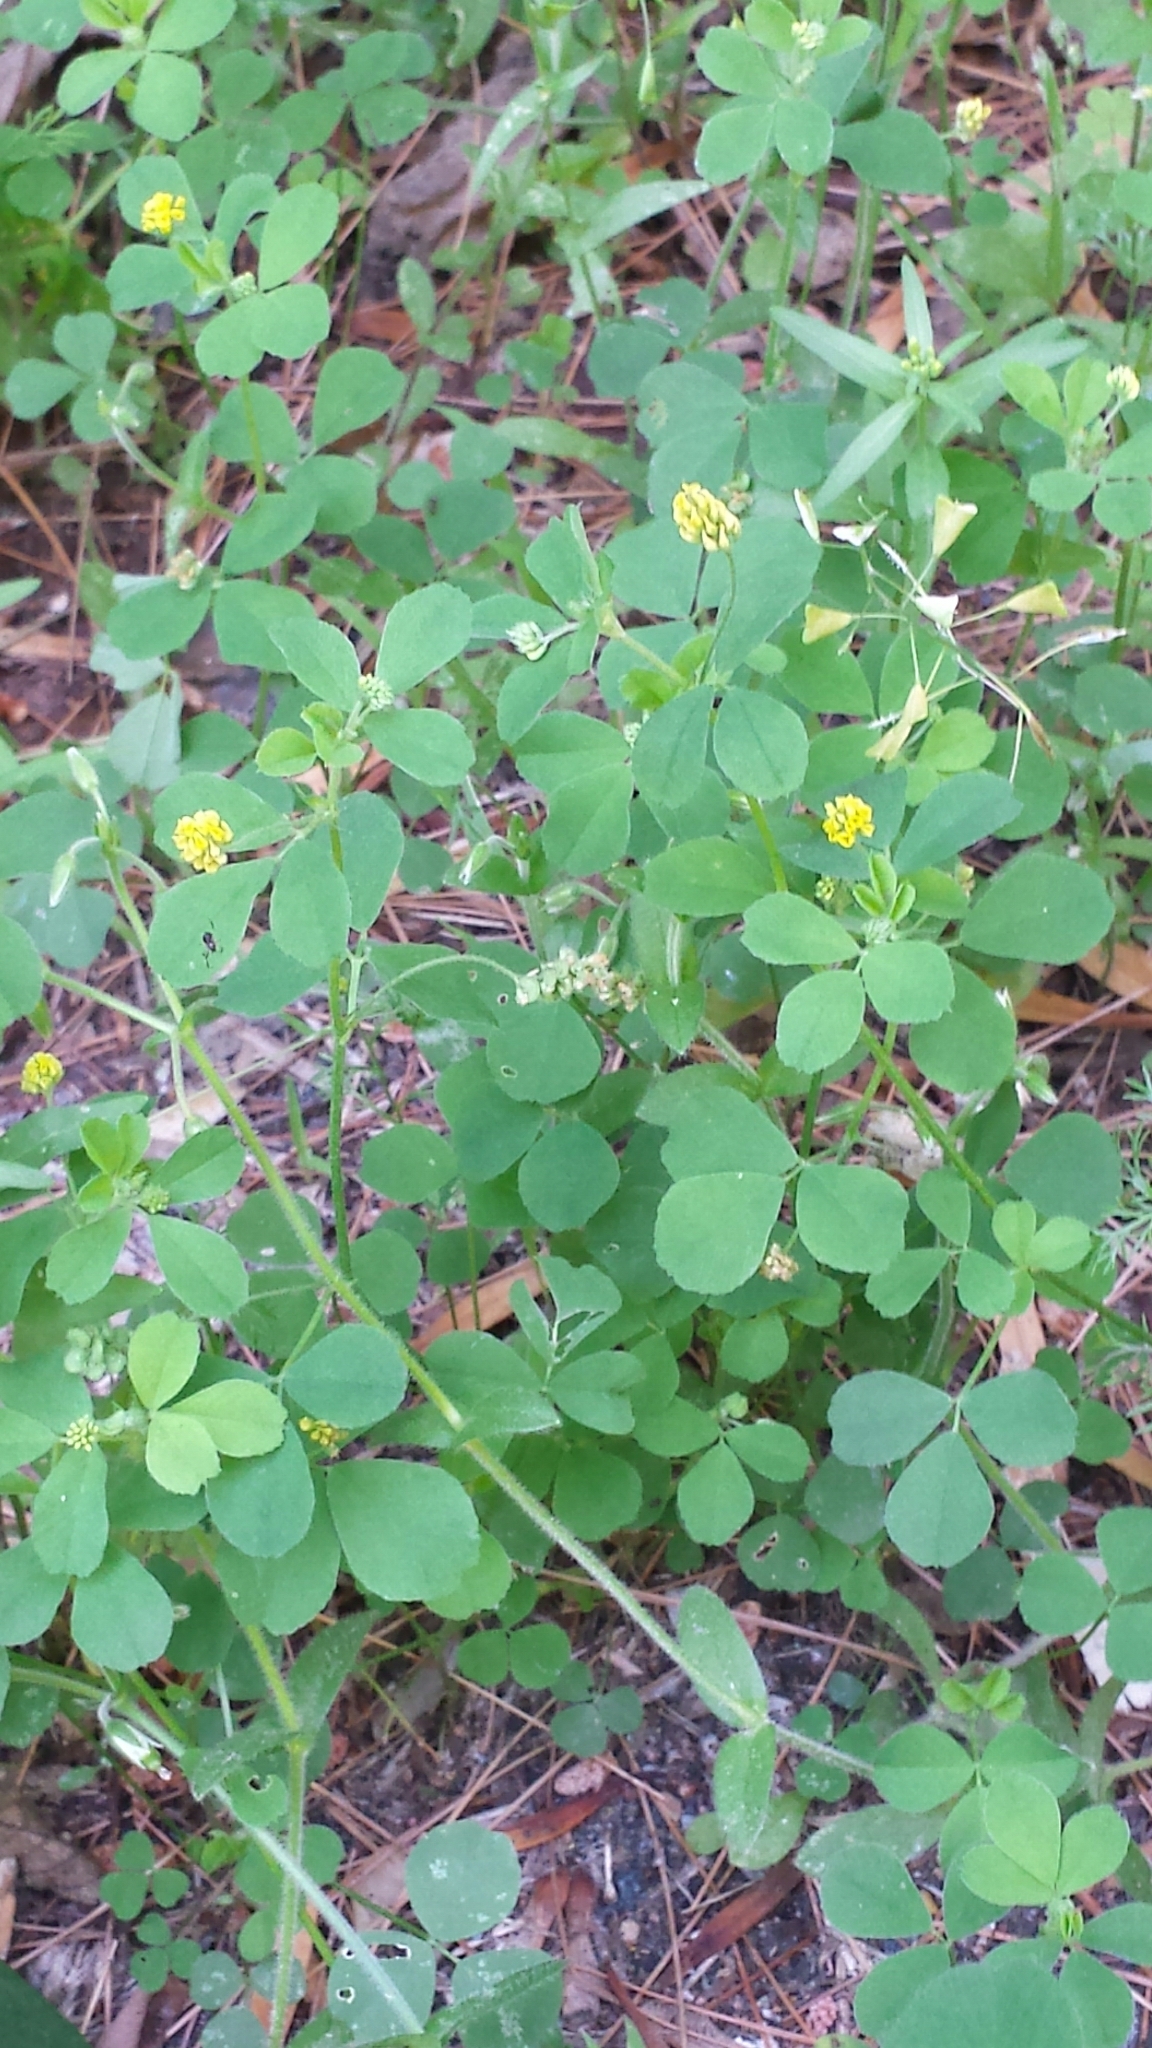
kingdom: Plantae
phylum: Tracheophyta
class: Magnoliopsida
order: Fabales
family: Fabaceae
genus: Medicago
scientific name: Medicago lupulina
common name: Black medick
